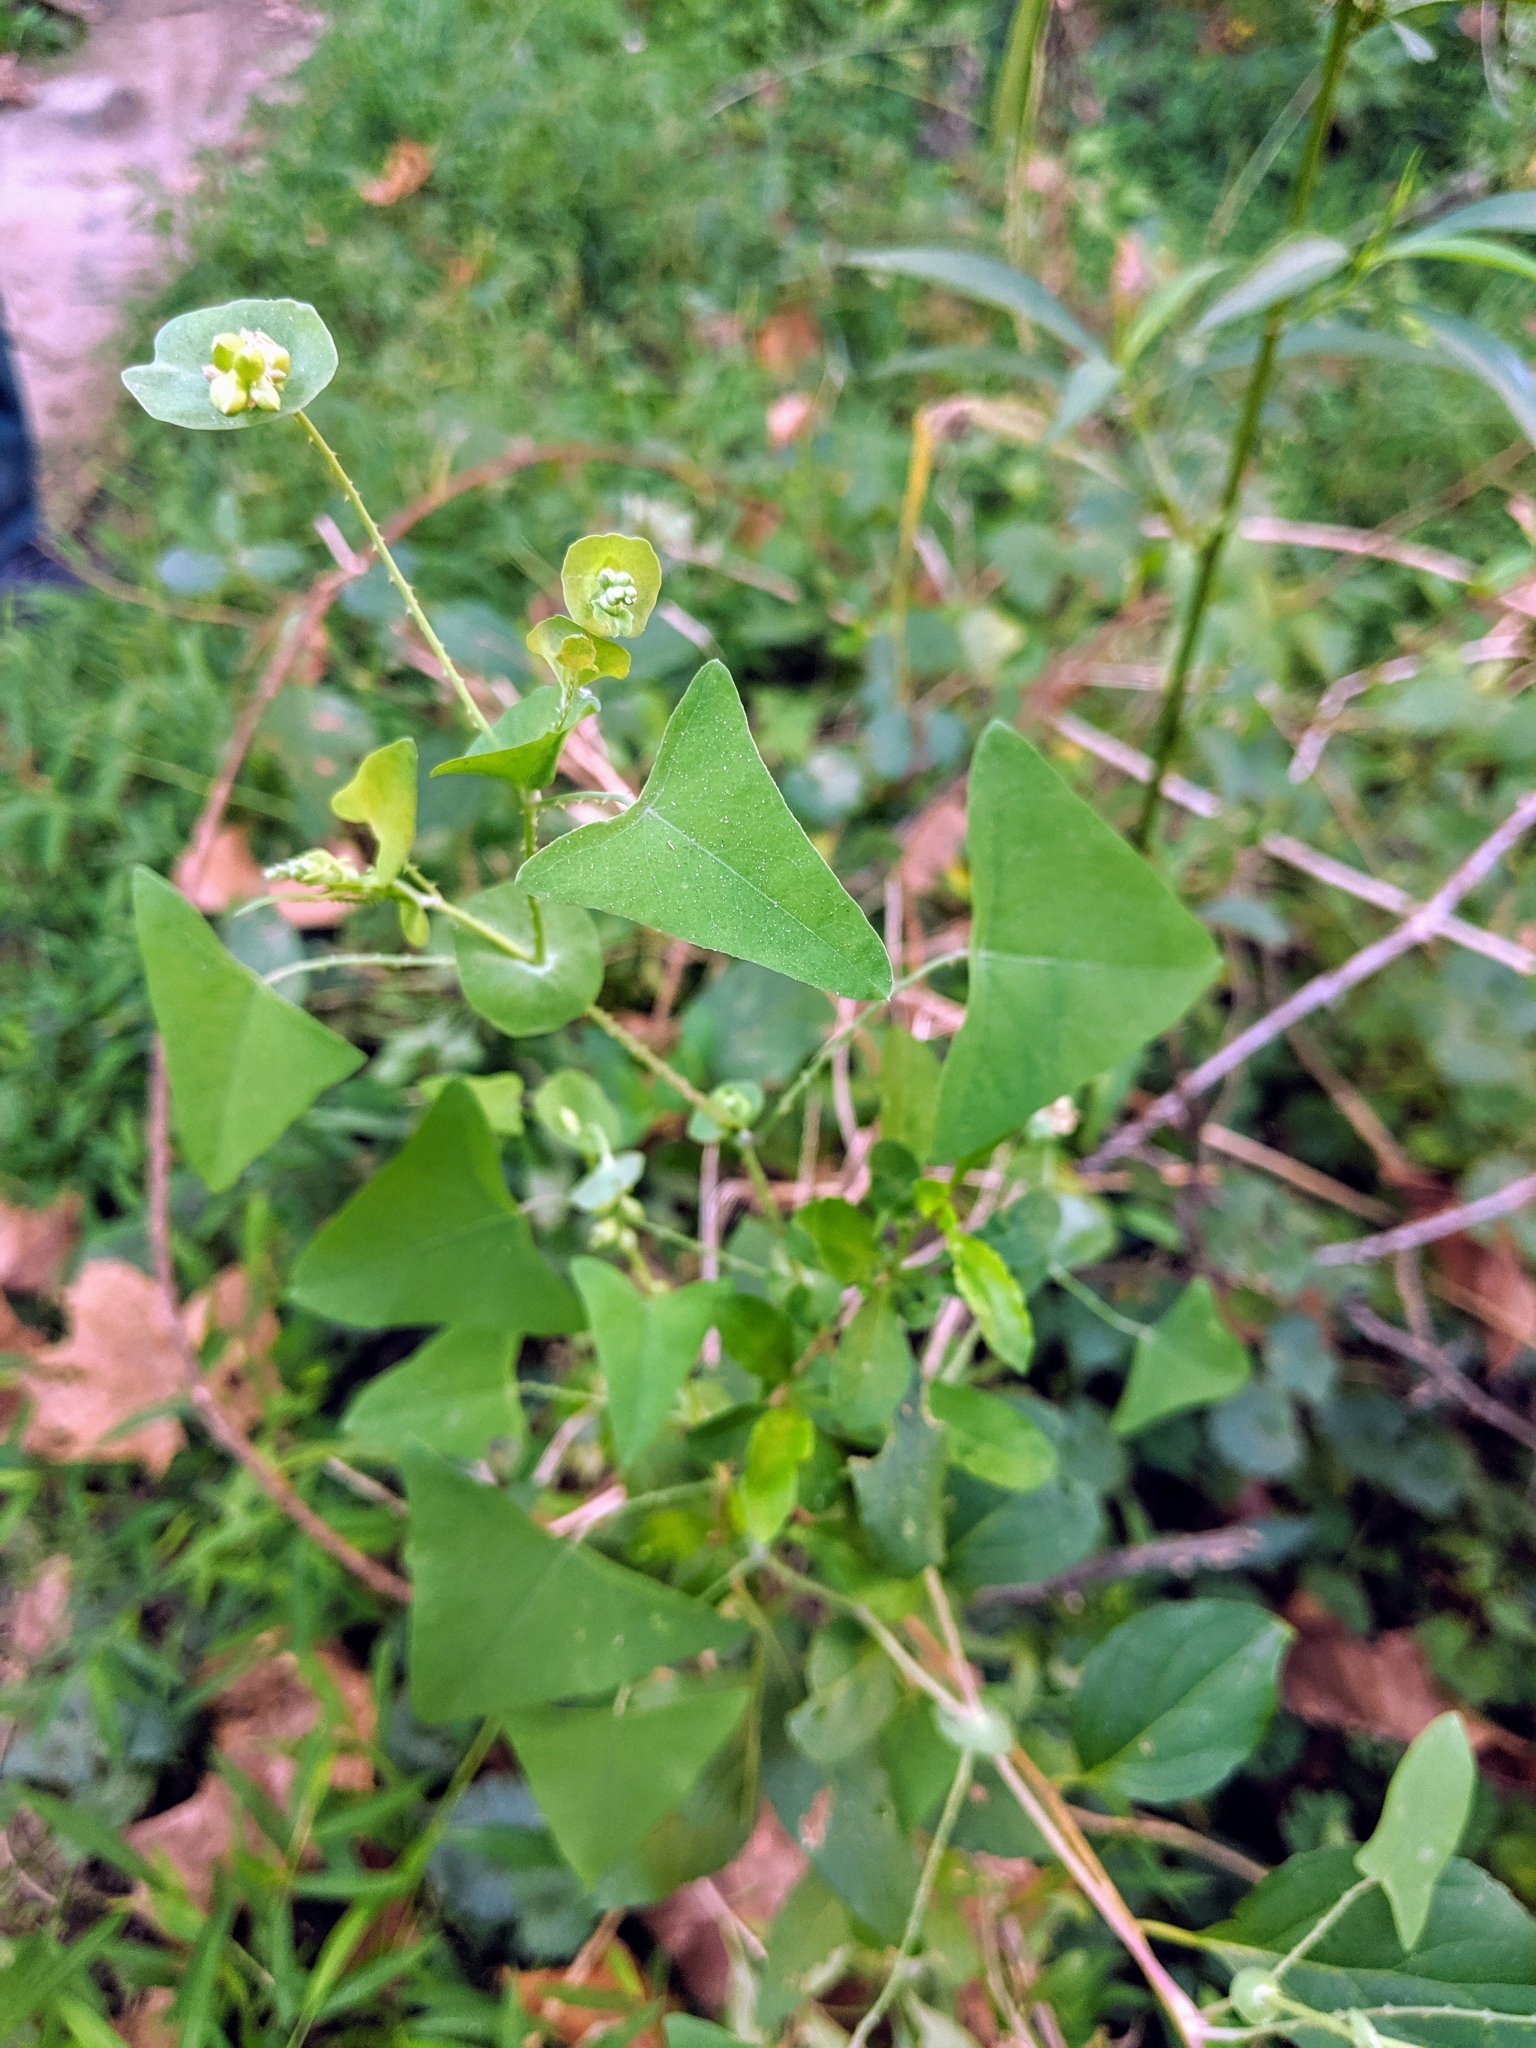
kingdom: Plantae
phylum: Tracheophyta
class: Magnoliopsida
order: Caryophyllales
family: Polygonaceae
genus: Persicaria
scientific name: Persicaria perfoliata
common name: Asiatic tearthumb
